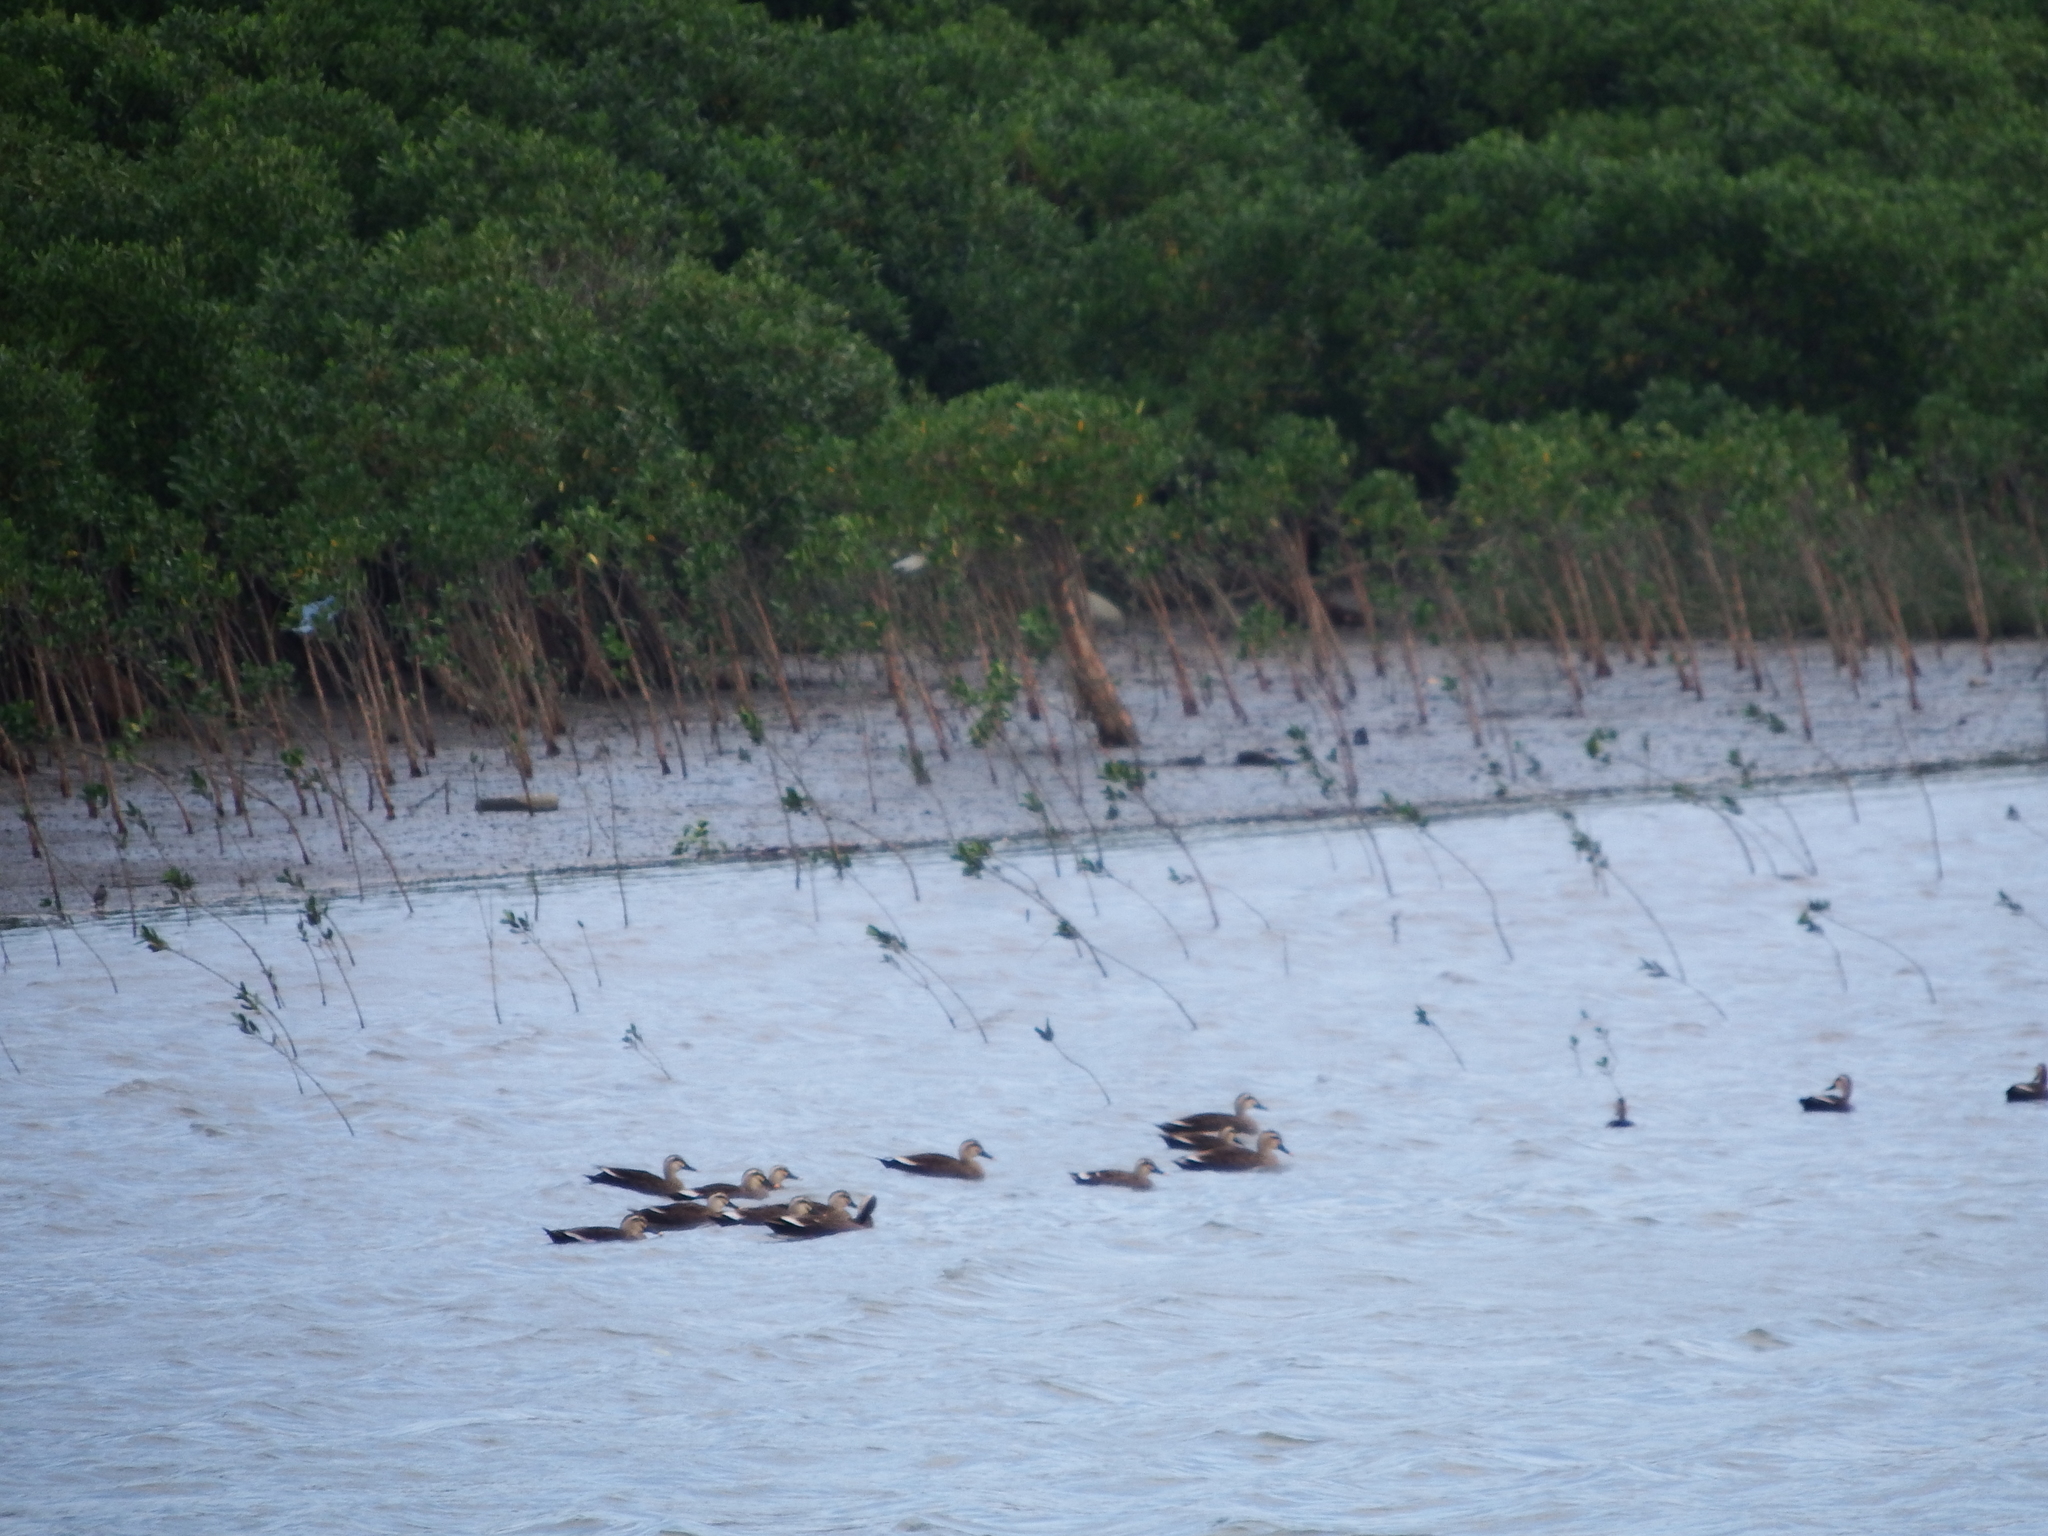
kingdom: Animalia
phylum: Chordata
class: Aves
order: Anseriformes
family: Anatidae
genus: Anas
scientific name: Anas zonorhyncha
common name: Eastern spot-billed duck
